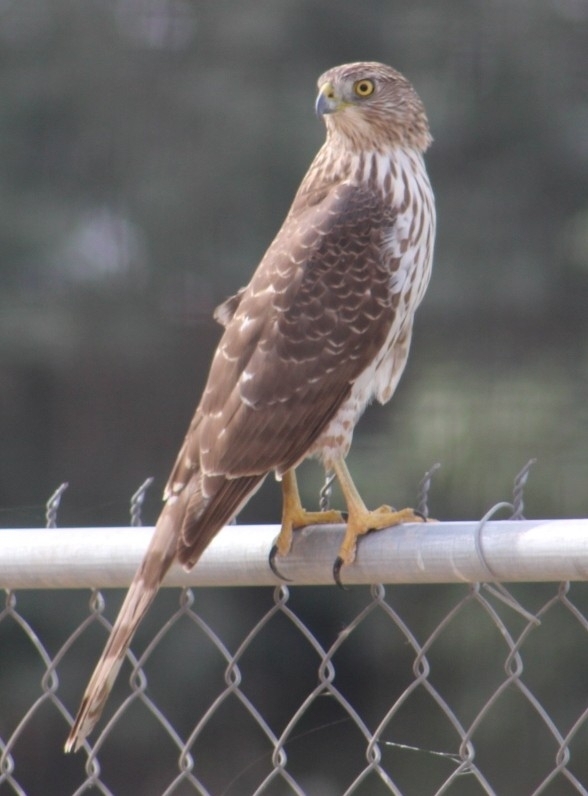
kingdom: Animalia
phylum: Chordata
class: Aves
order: Accipitriformes
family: Accipitridae
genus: Accipiter
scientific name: Accipiter cooperii
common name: Cooper's hawk
